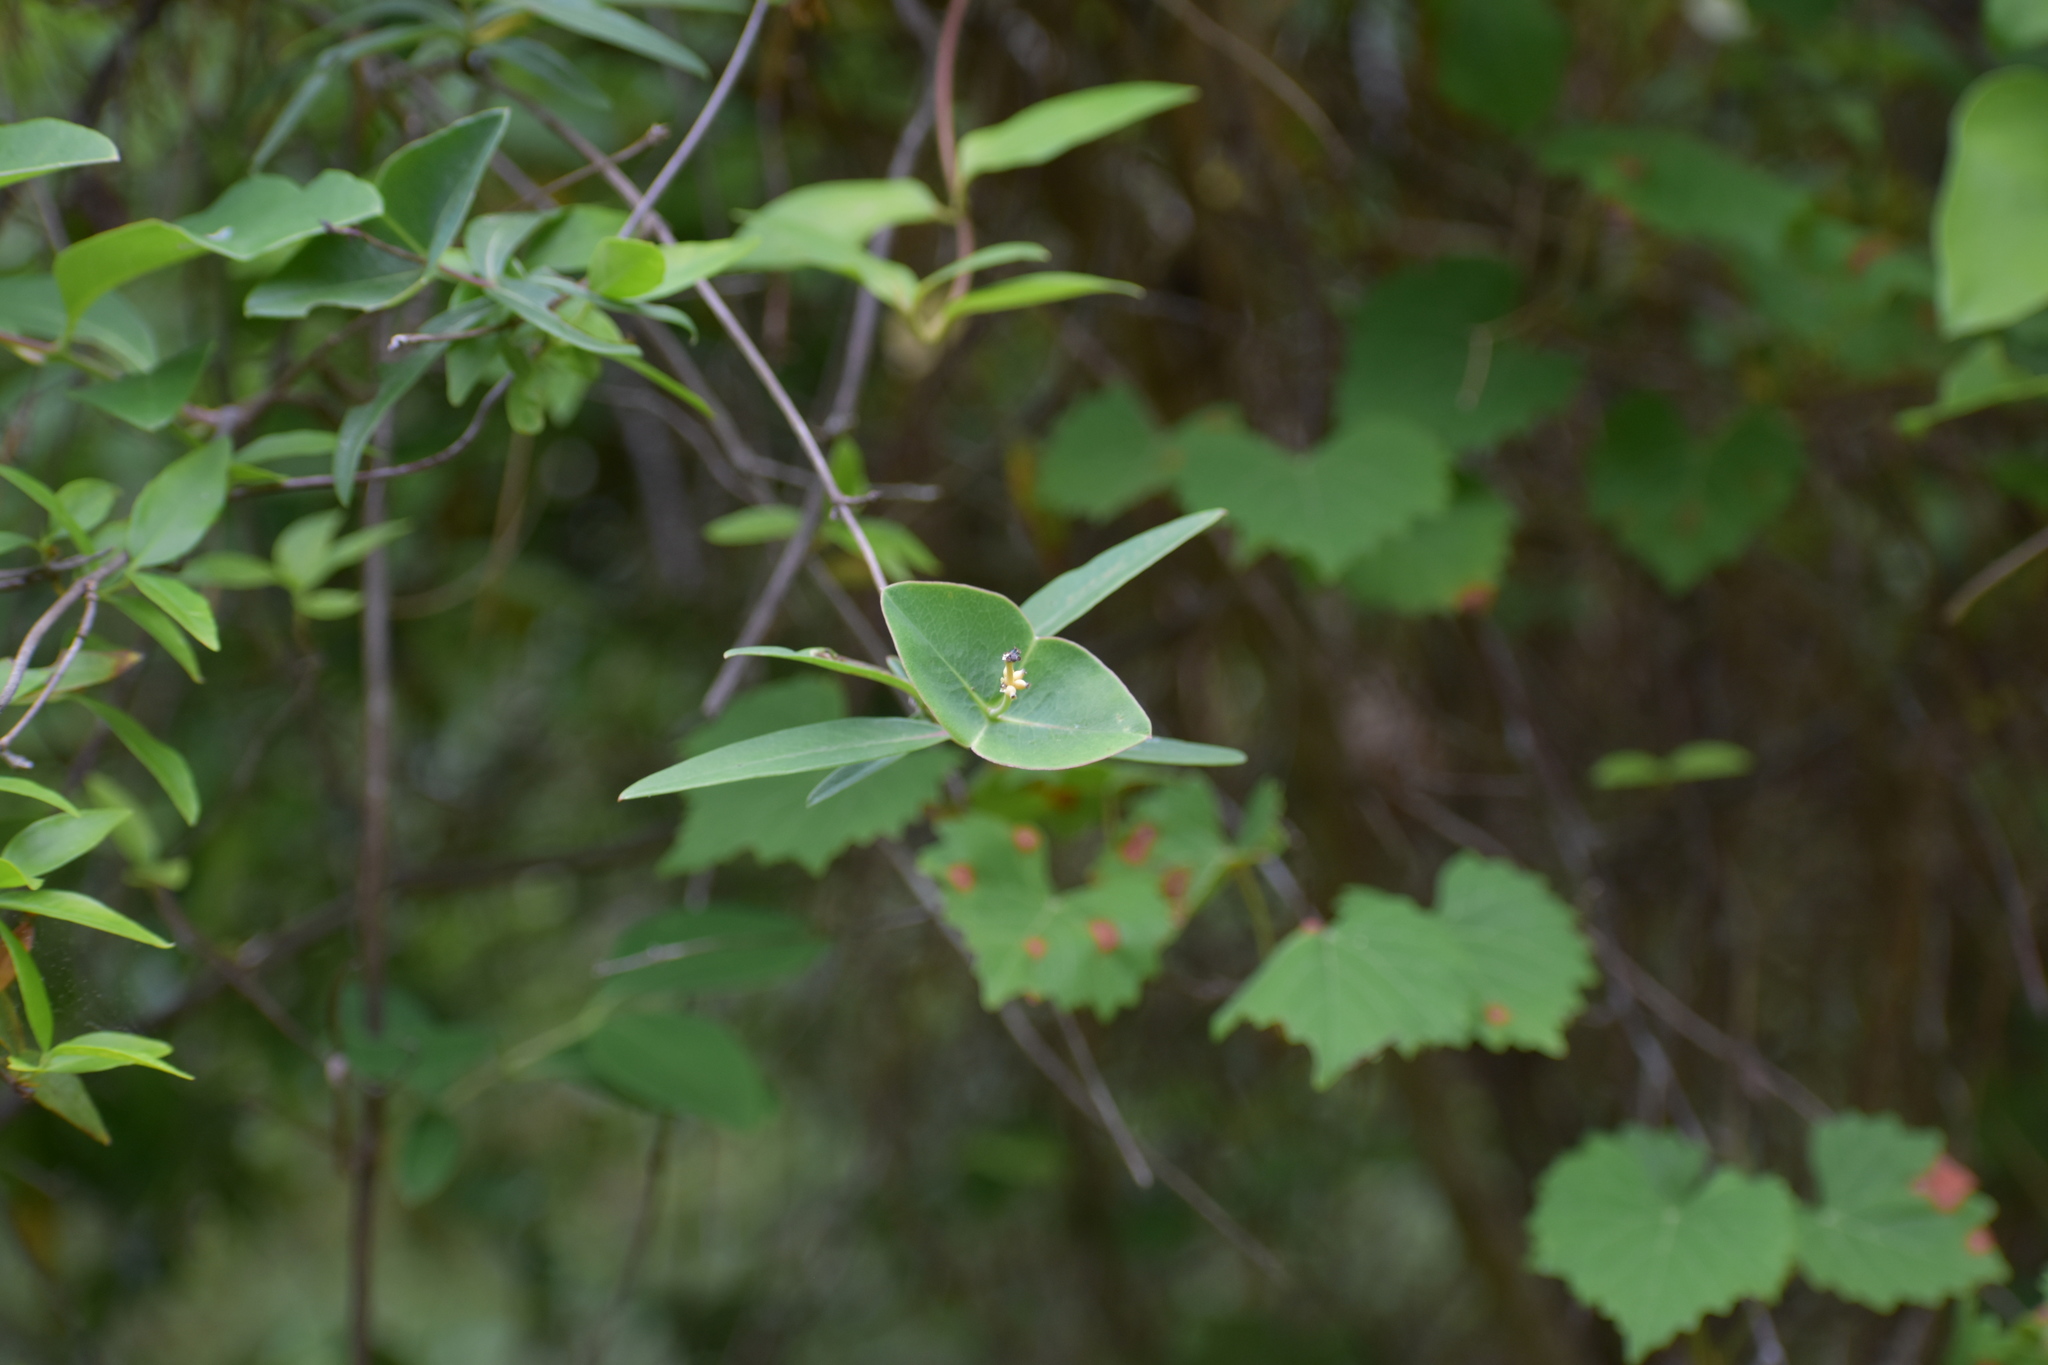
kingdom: Plantae
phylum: Tracheophyta
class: Magnoliopsida
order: Dipsacales
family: Caprifoliaceae
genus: Lonicera
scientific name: Lonicera sempervirens
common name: Coral honeysuckle
